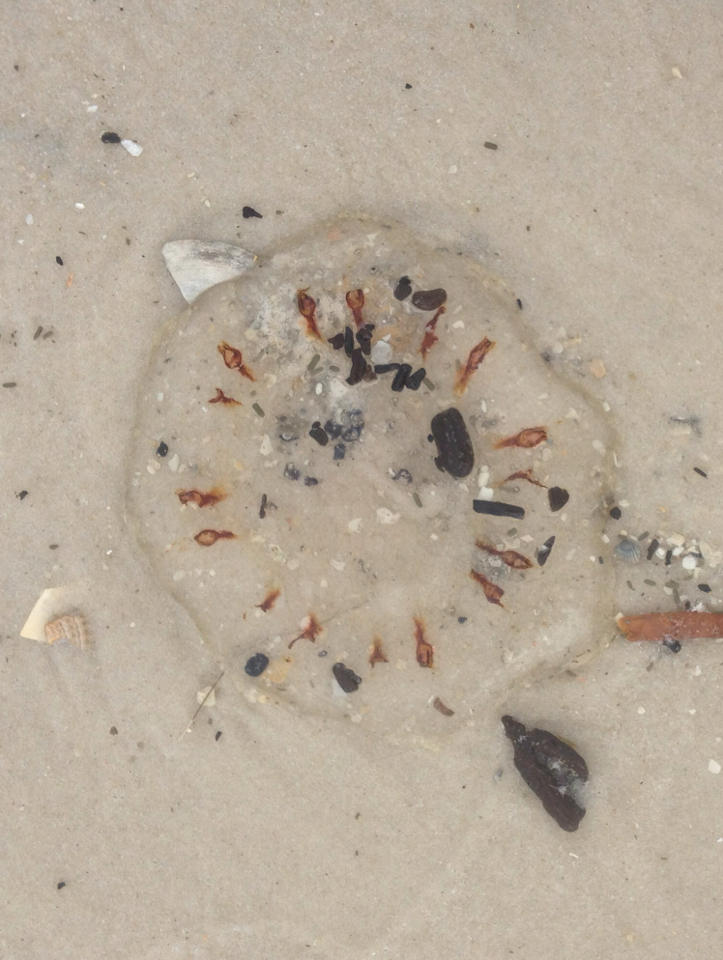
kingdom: Animalia
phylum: Cnidaria
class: Scyphozoa
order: Semaeostomeae
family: Pelagiidae
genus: Chrysaora
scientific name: Chrysaora quinquecirrha
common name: Atlantic sea nettle
